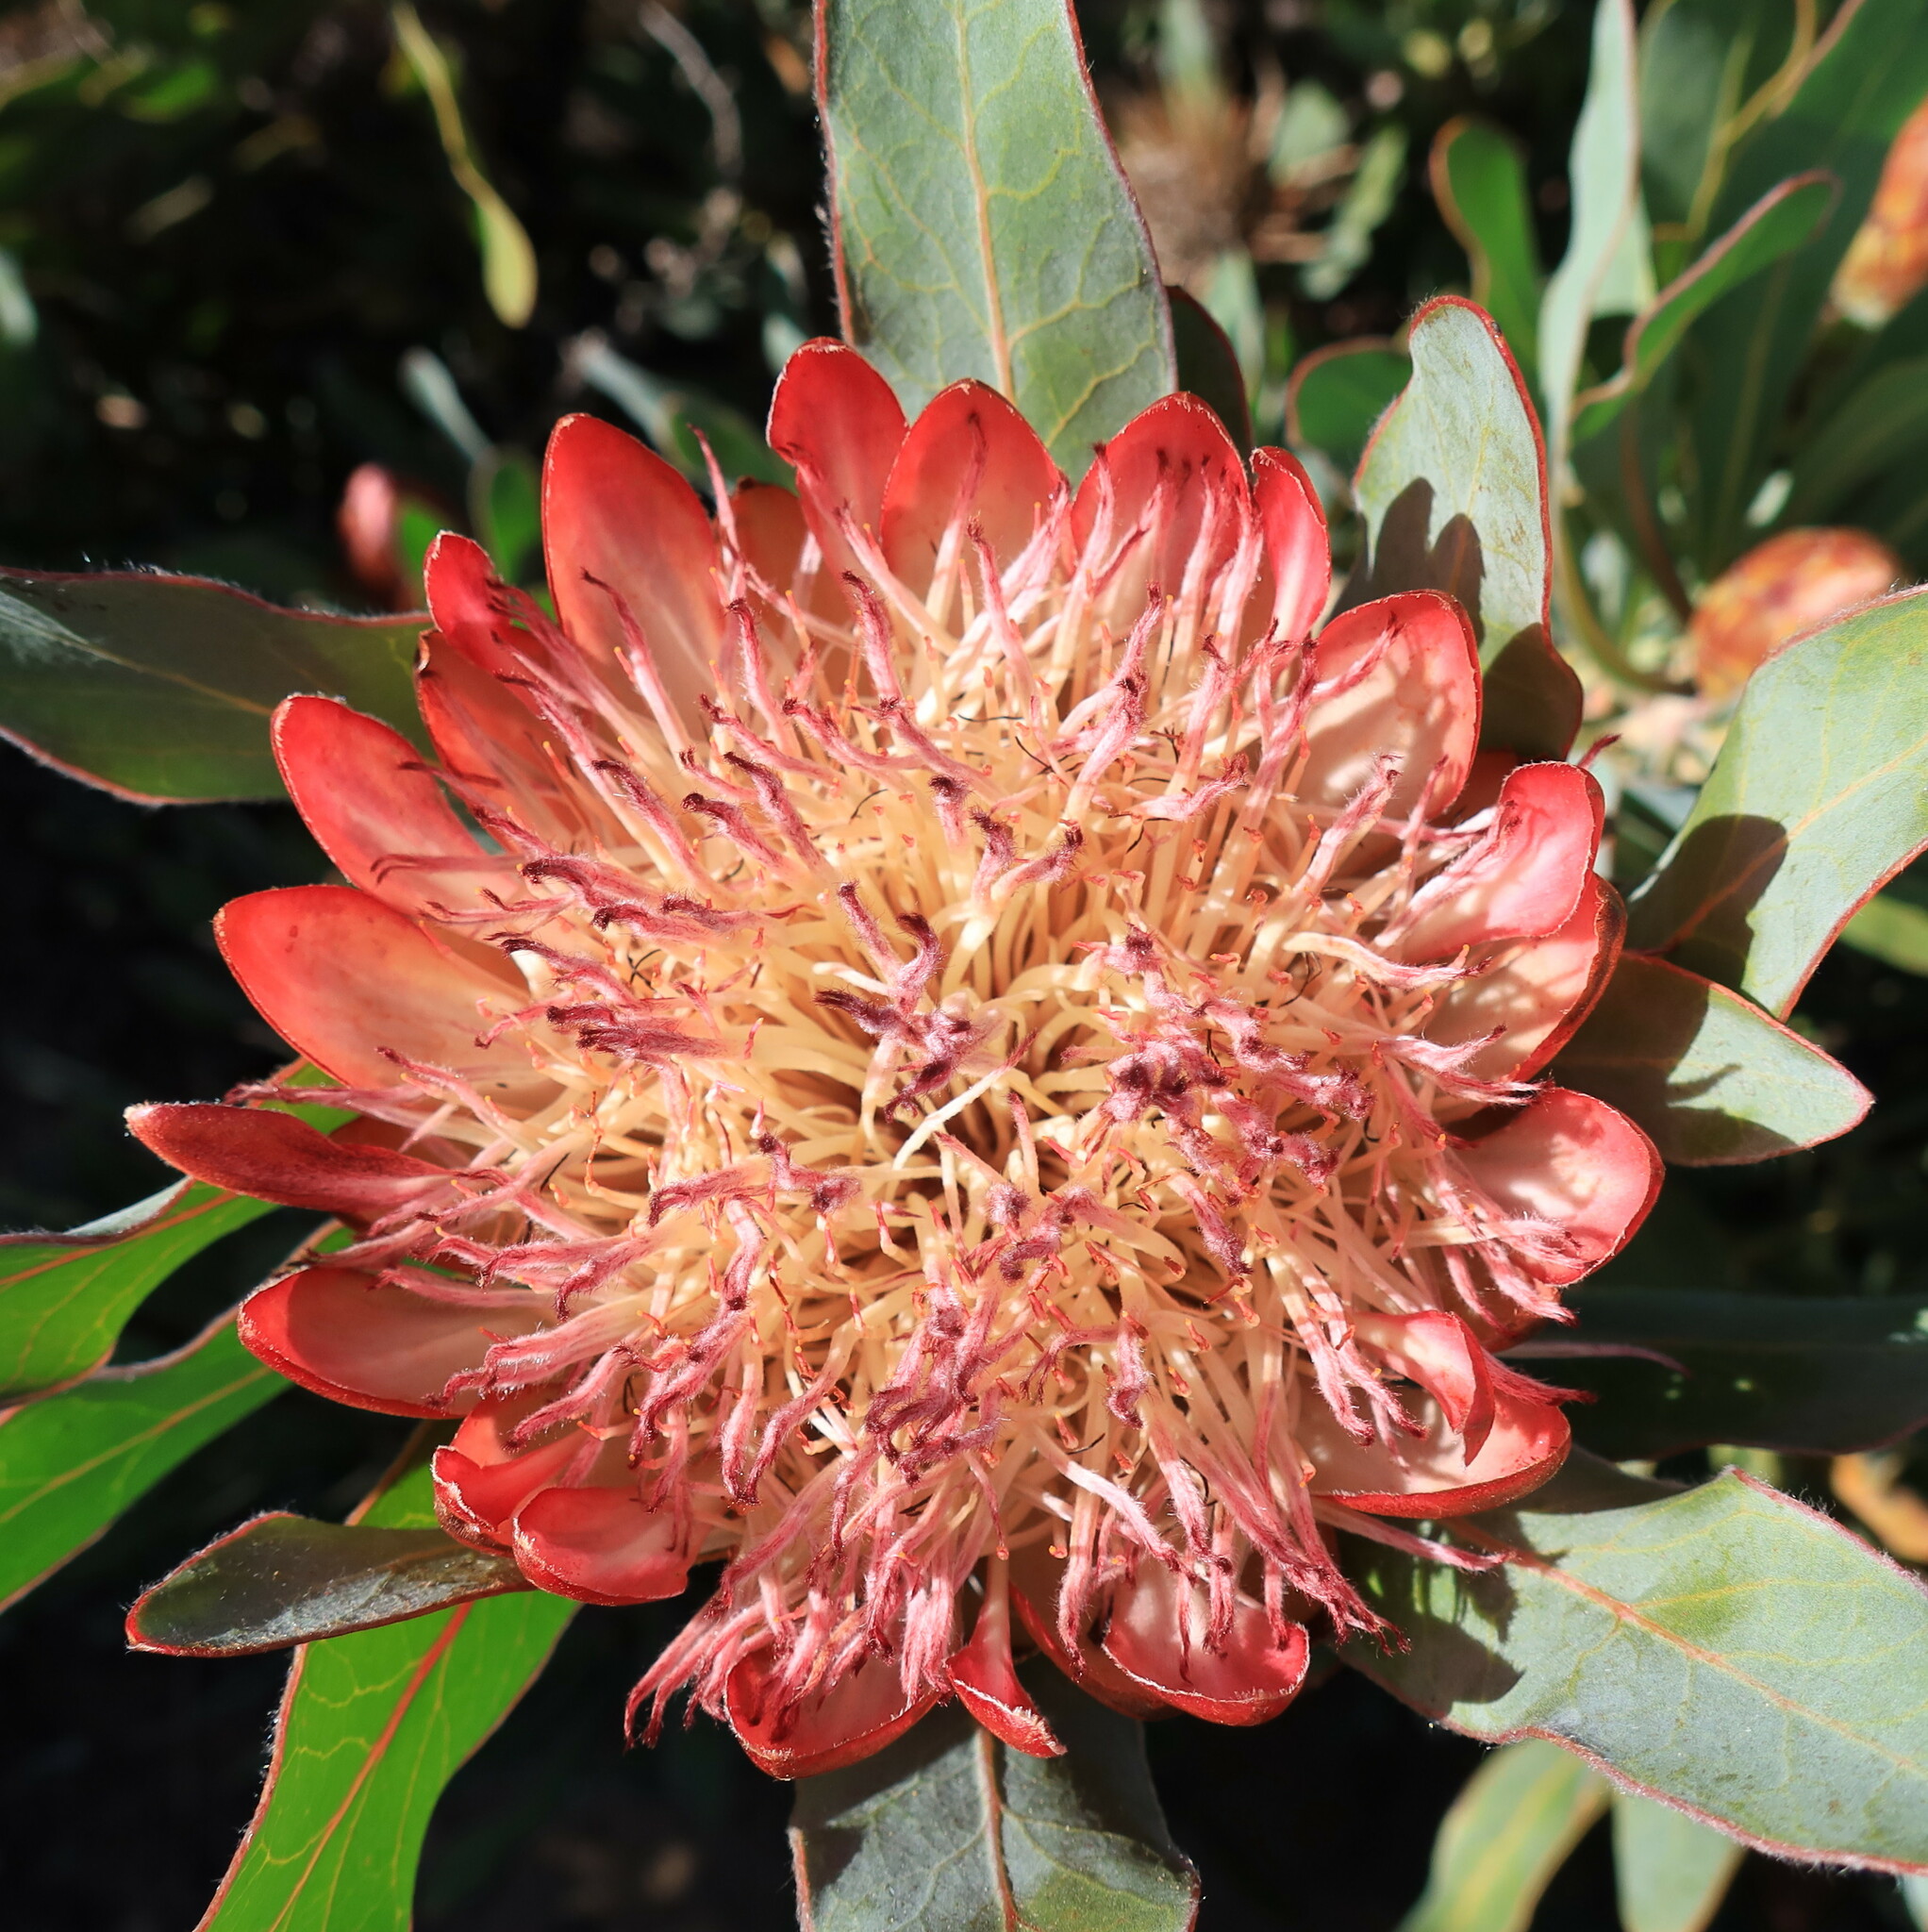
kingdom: Plantae
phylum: Tracheophyta
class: Magnoliopsida
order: Proteales
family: Proteaceae
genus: Protea
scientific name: Protea
